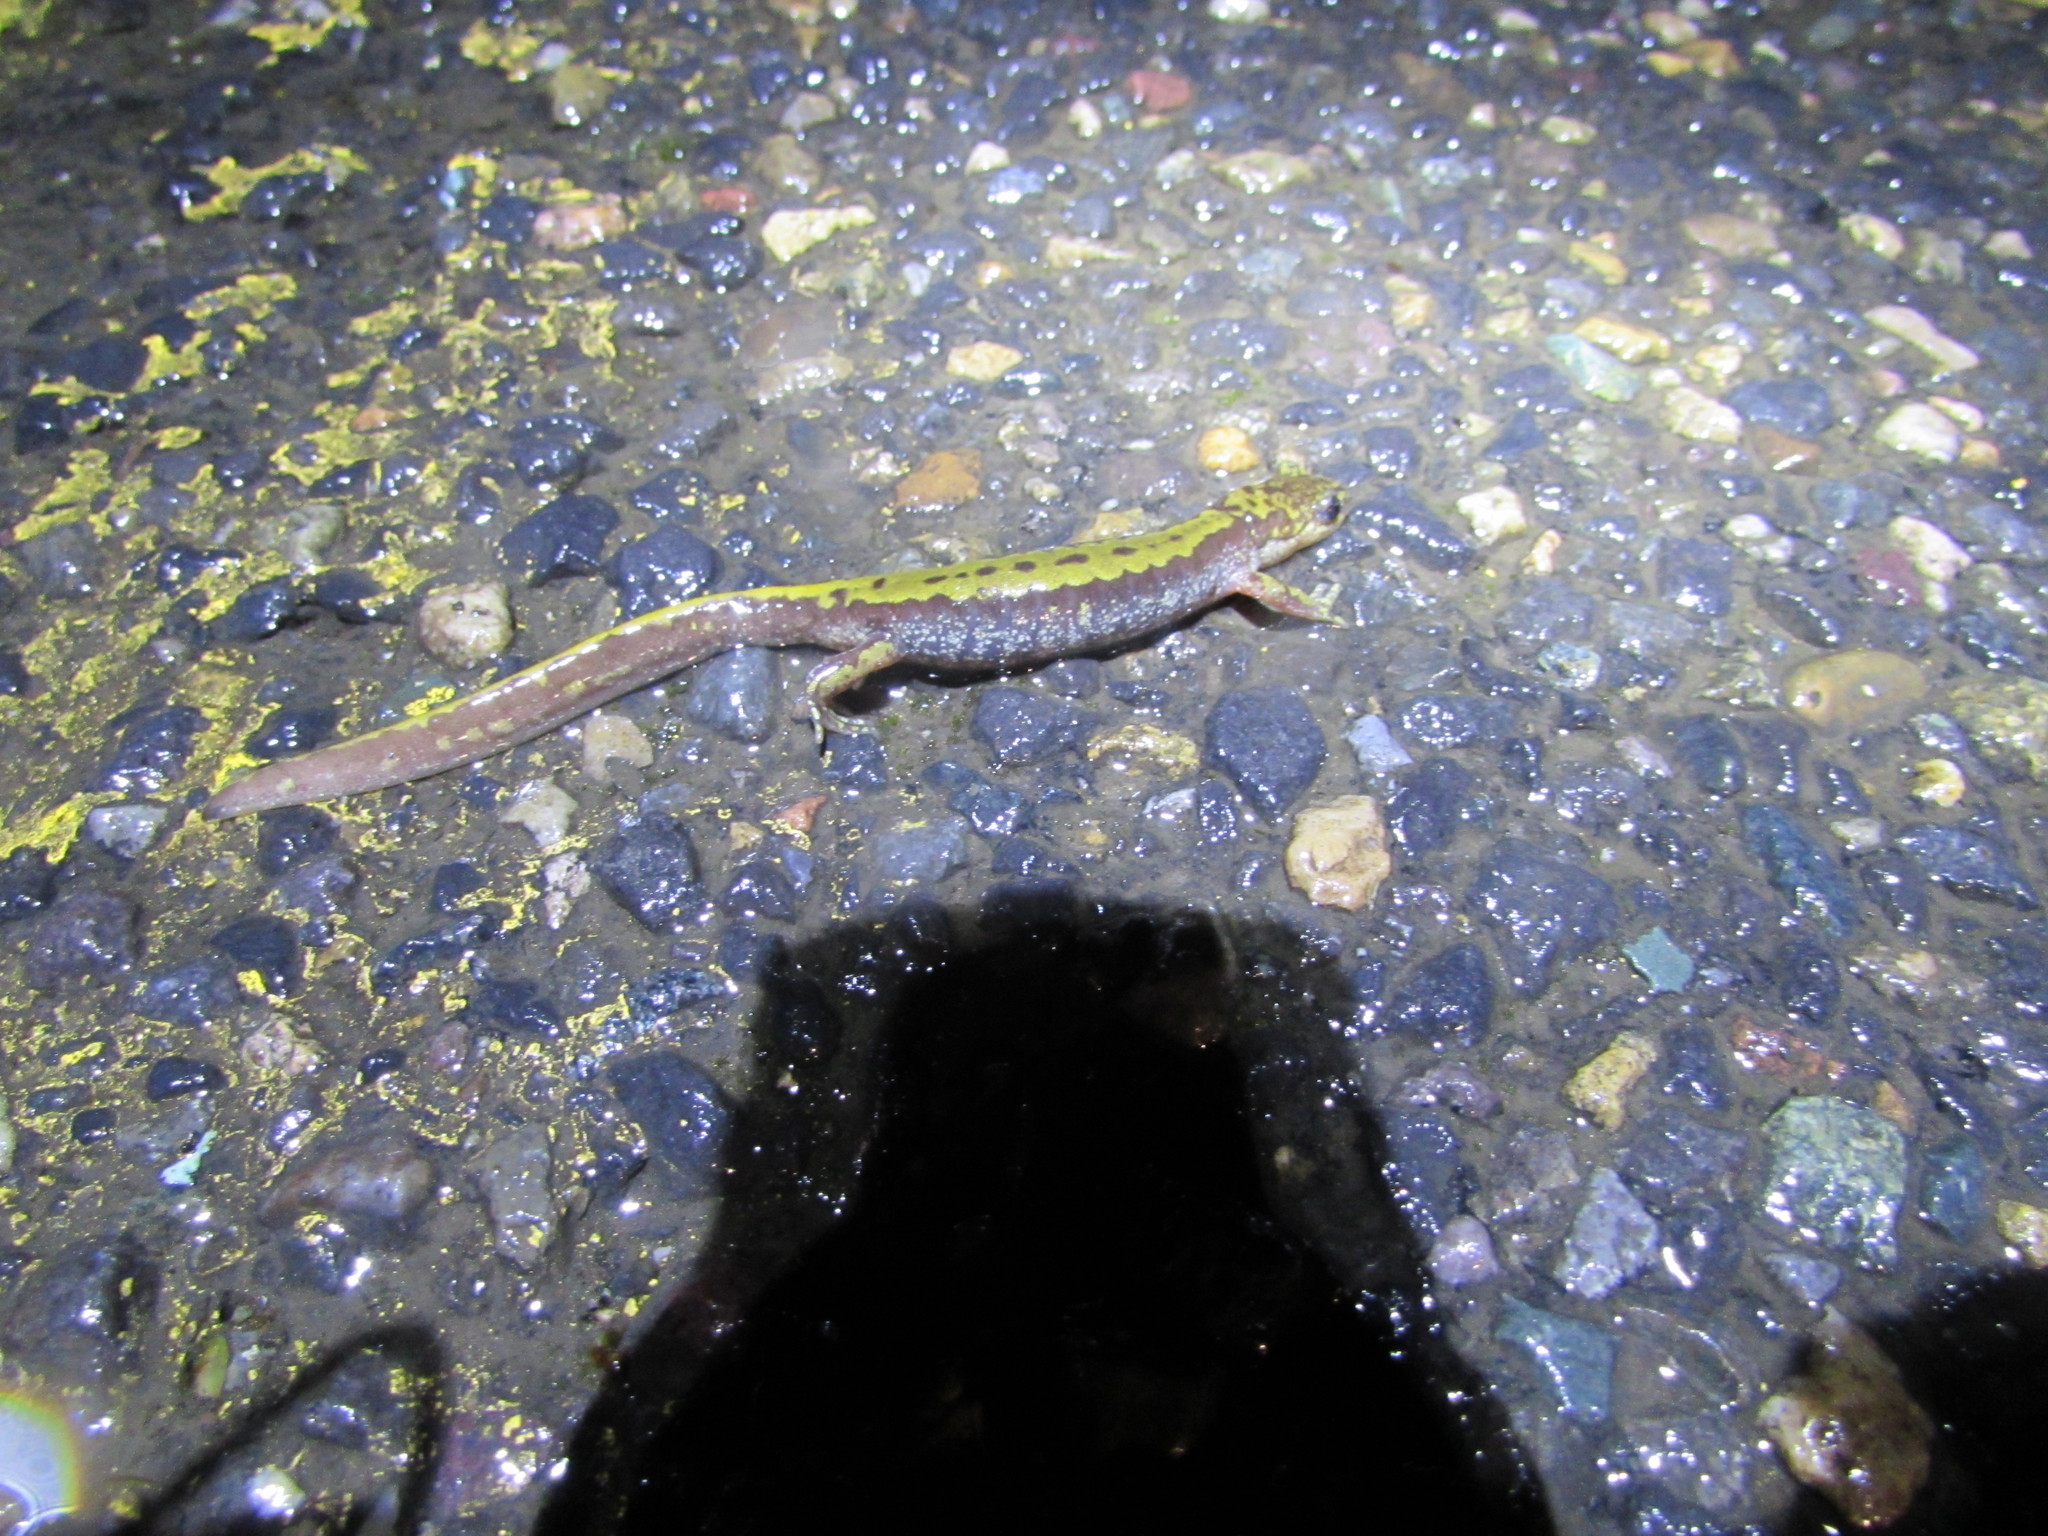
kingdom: Animalia
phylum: Chordata
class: Amphibia
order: Caudata
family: Ambystomatidae
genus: Ambystoma
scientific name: Ambystoma macrodactylum
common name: Long-toed salamander
